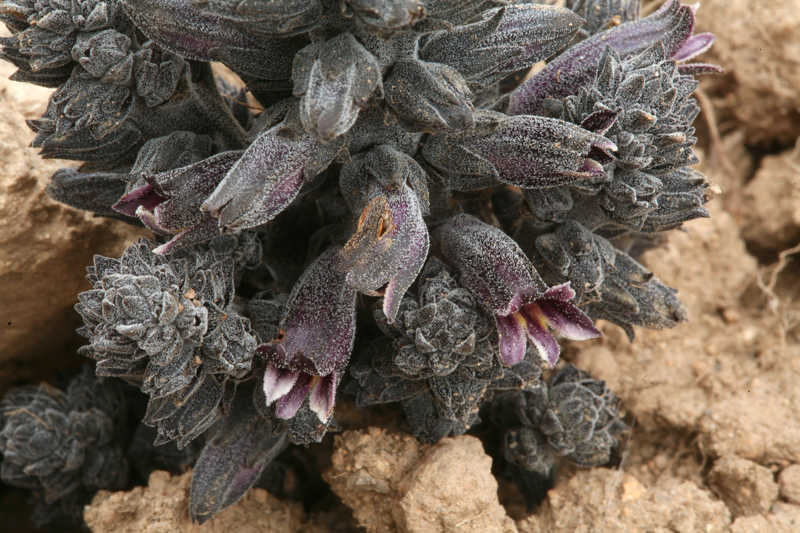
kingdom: Plantae
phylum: Tracheophyta
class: Magnoliopsida
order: Lamiales
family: Orobanchaceae
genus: Aphyllon
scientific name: Aphyllon tuberosum
